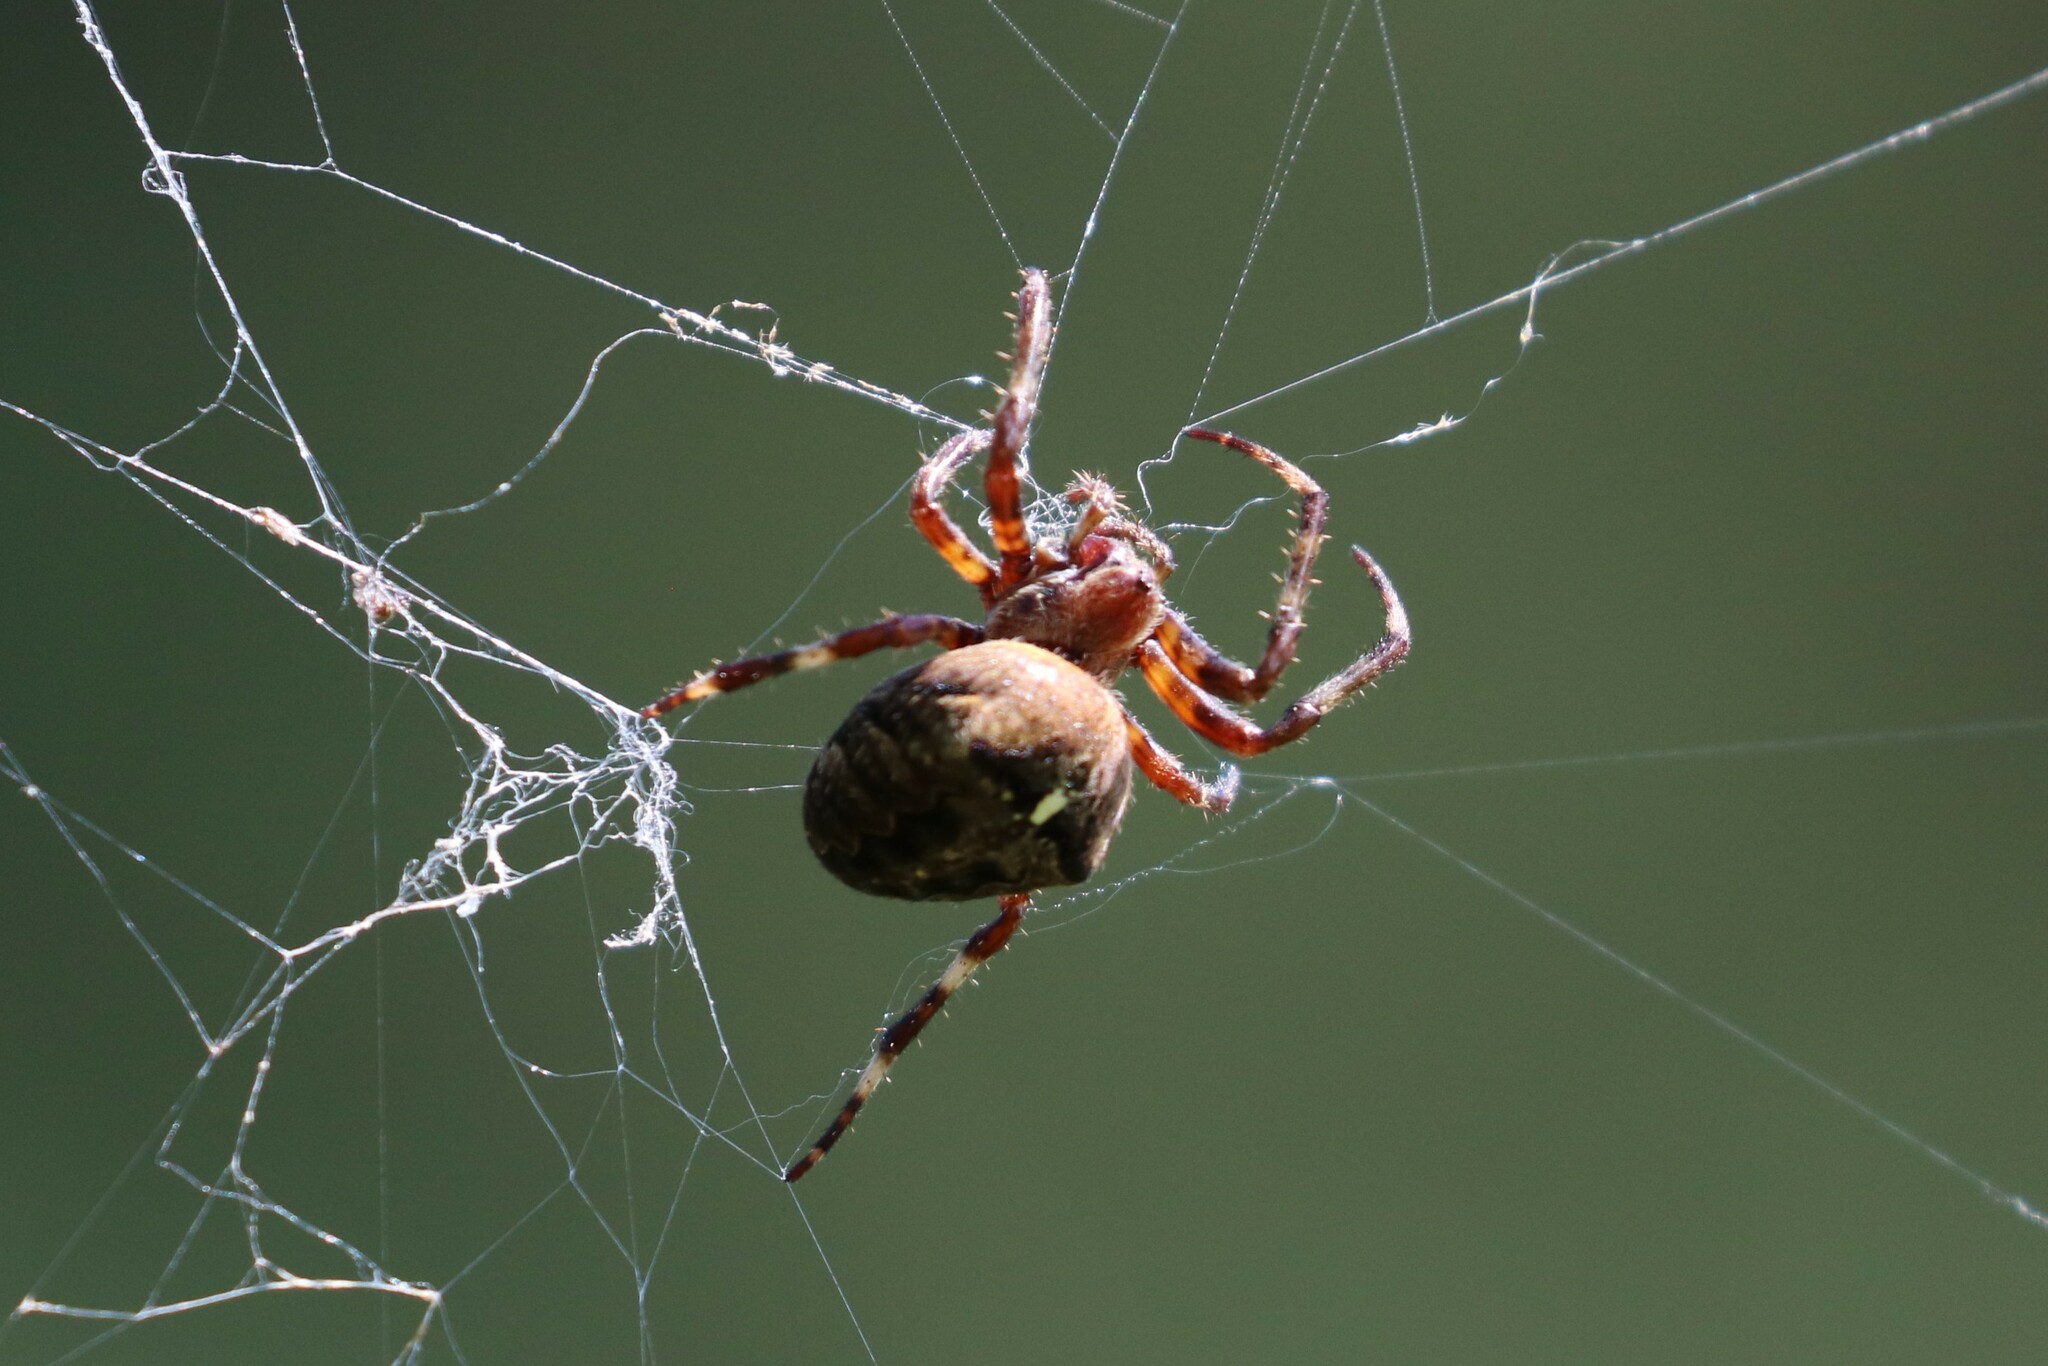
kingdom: Animalia
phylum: Arthropoda
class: Arachnida
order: Araneae
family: Araneidae
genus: Araneus
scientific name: Araneus angulatus
